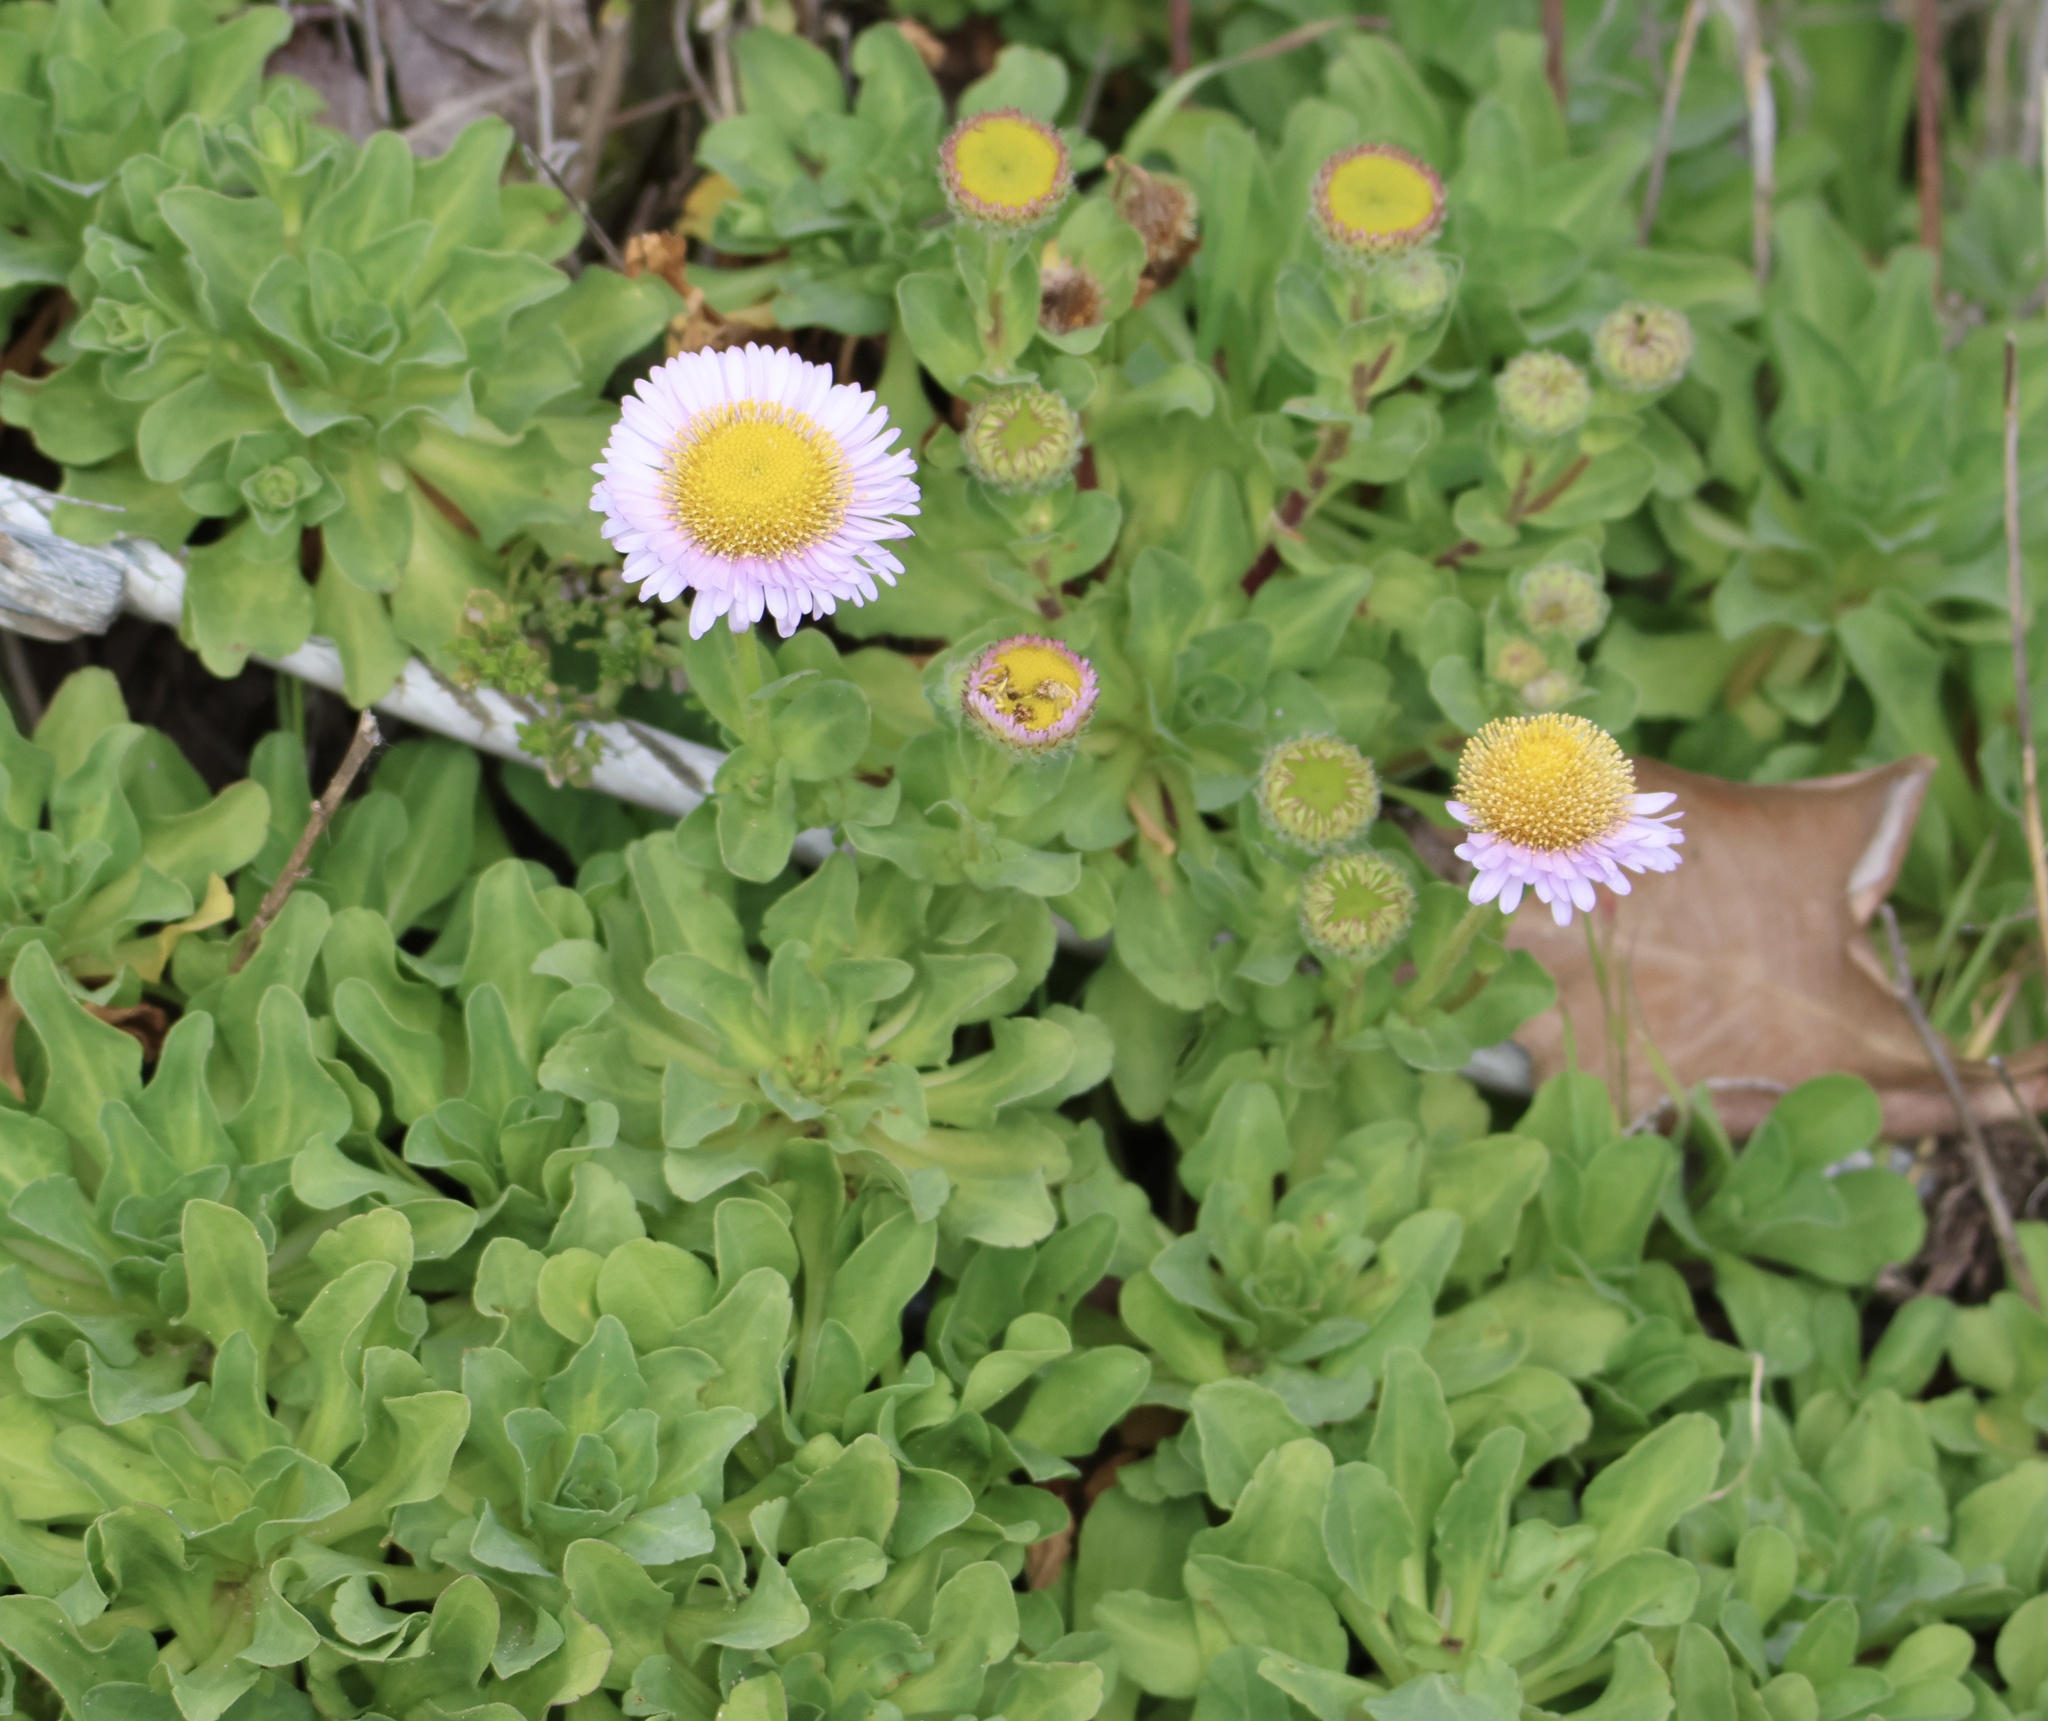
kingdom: Plantae
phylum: Tracheophyta
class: Magnoliopsida
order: Asterales
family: Asteraceae
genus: Erigeron
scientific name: Erigeron glaucus
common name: Seaside daisy
